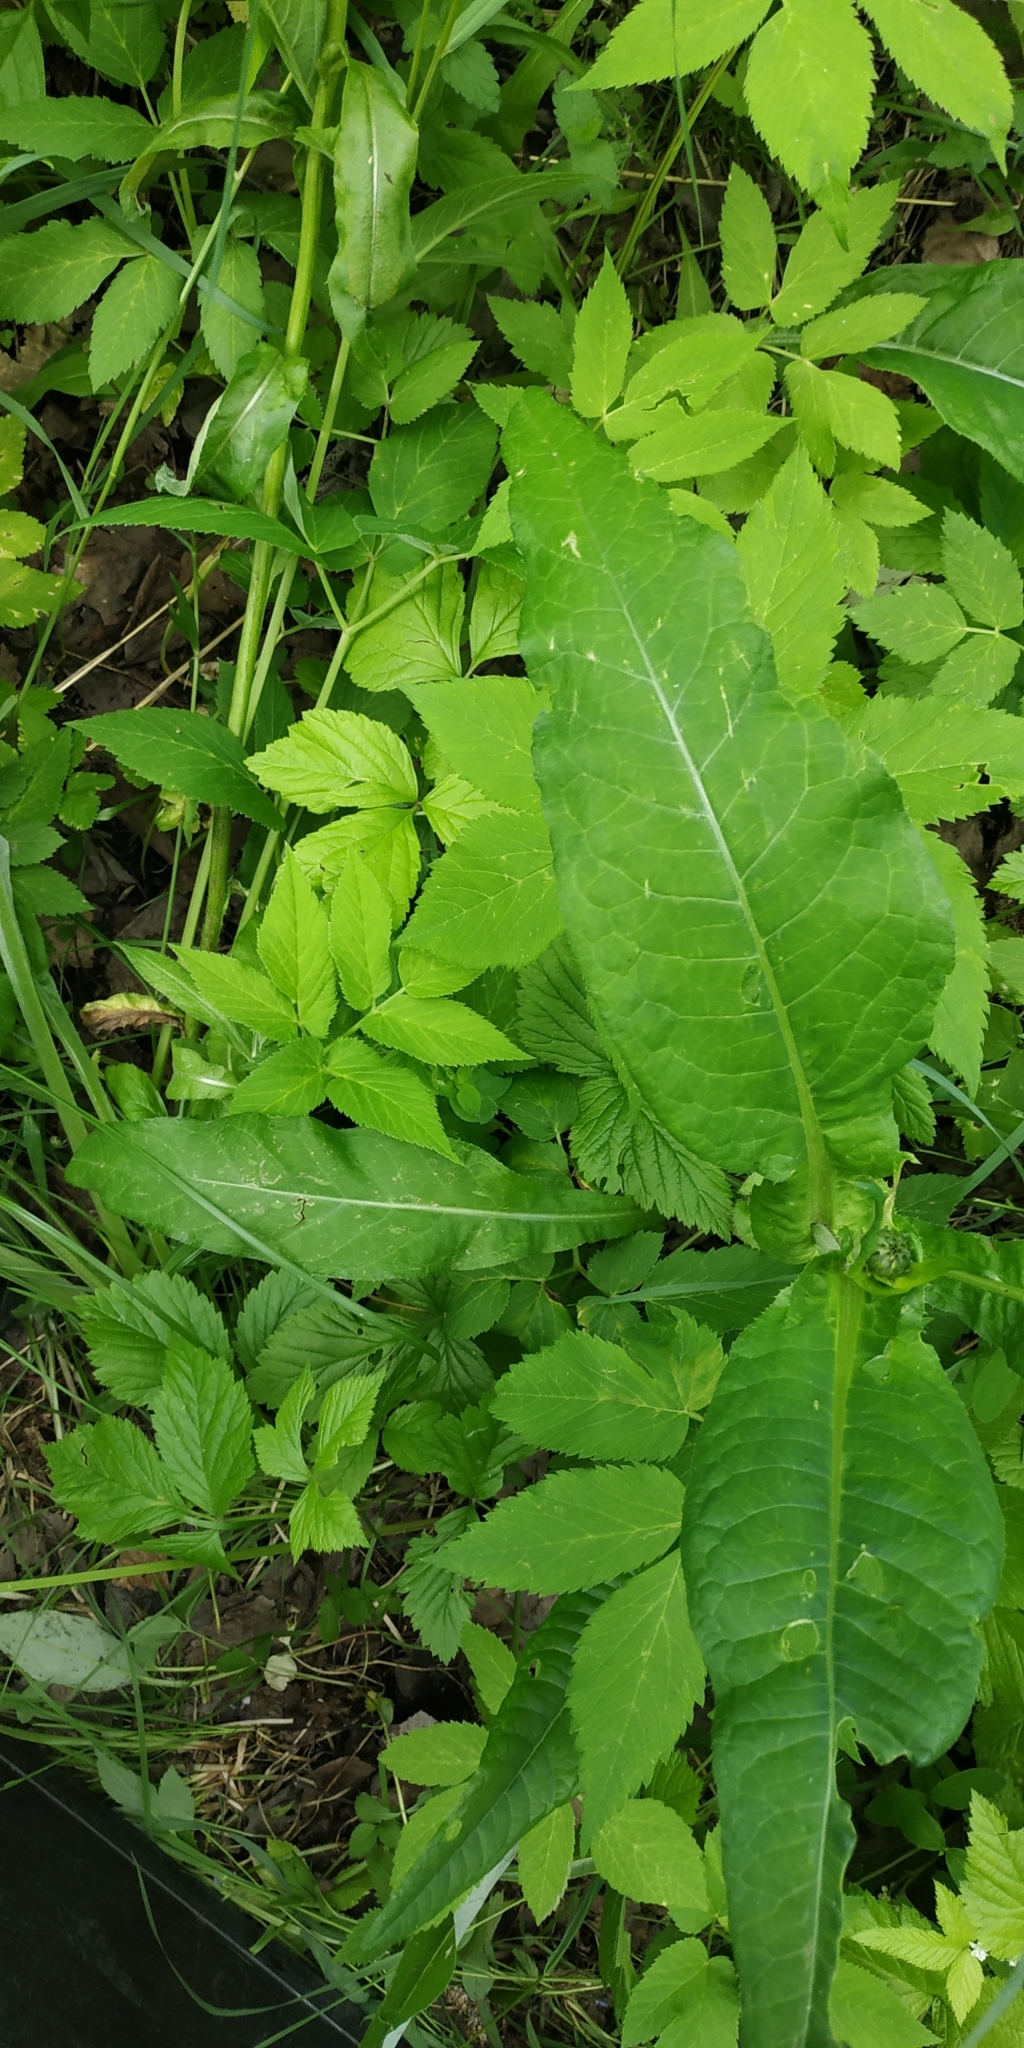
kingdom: Plantae
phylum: Tracheophyta
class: Magnoliopsida
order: Asterales
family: Asteraceae
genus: Cirsium
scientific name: Cirsium heterophyllum
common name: Melancholy thistle
